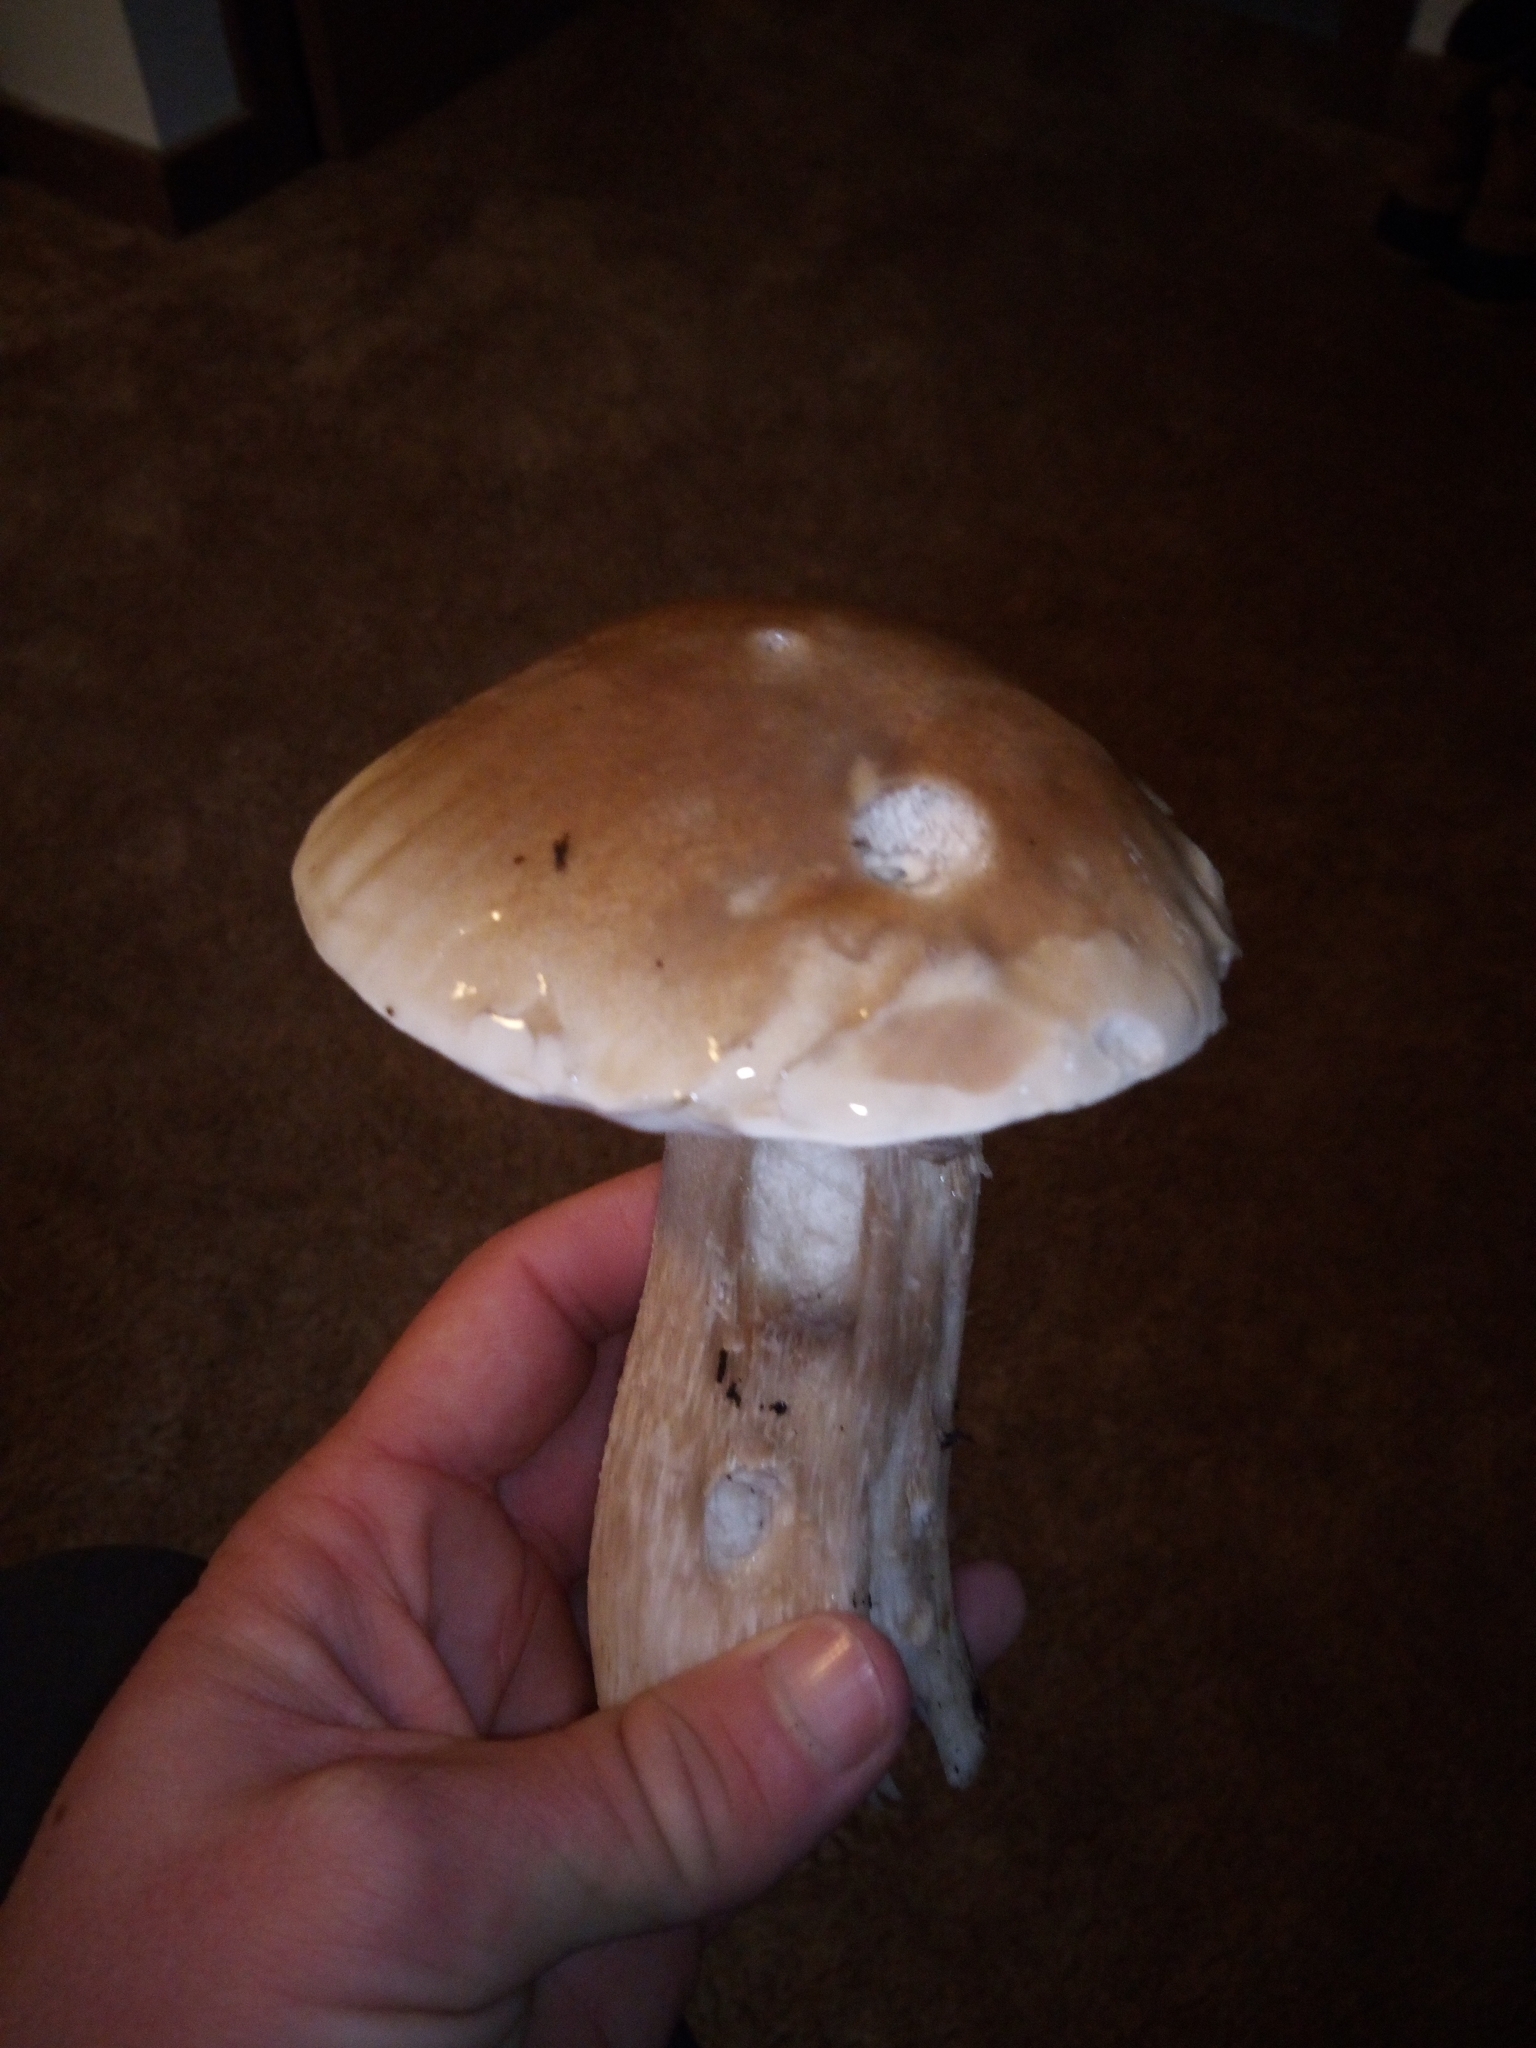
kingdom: Fungi
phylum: Basidiomycota
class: Agaricomycetes
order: Boletales
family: Boletaceae
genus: Boletus
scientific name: Boletus edulis
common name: Cep
